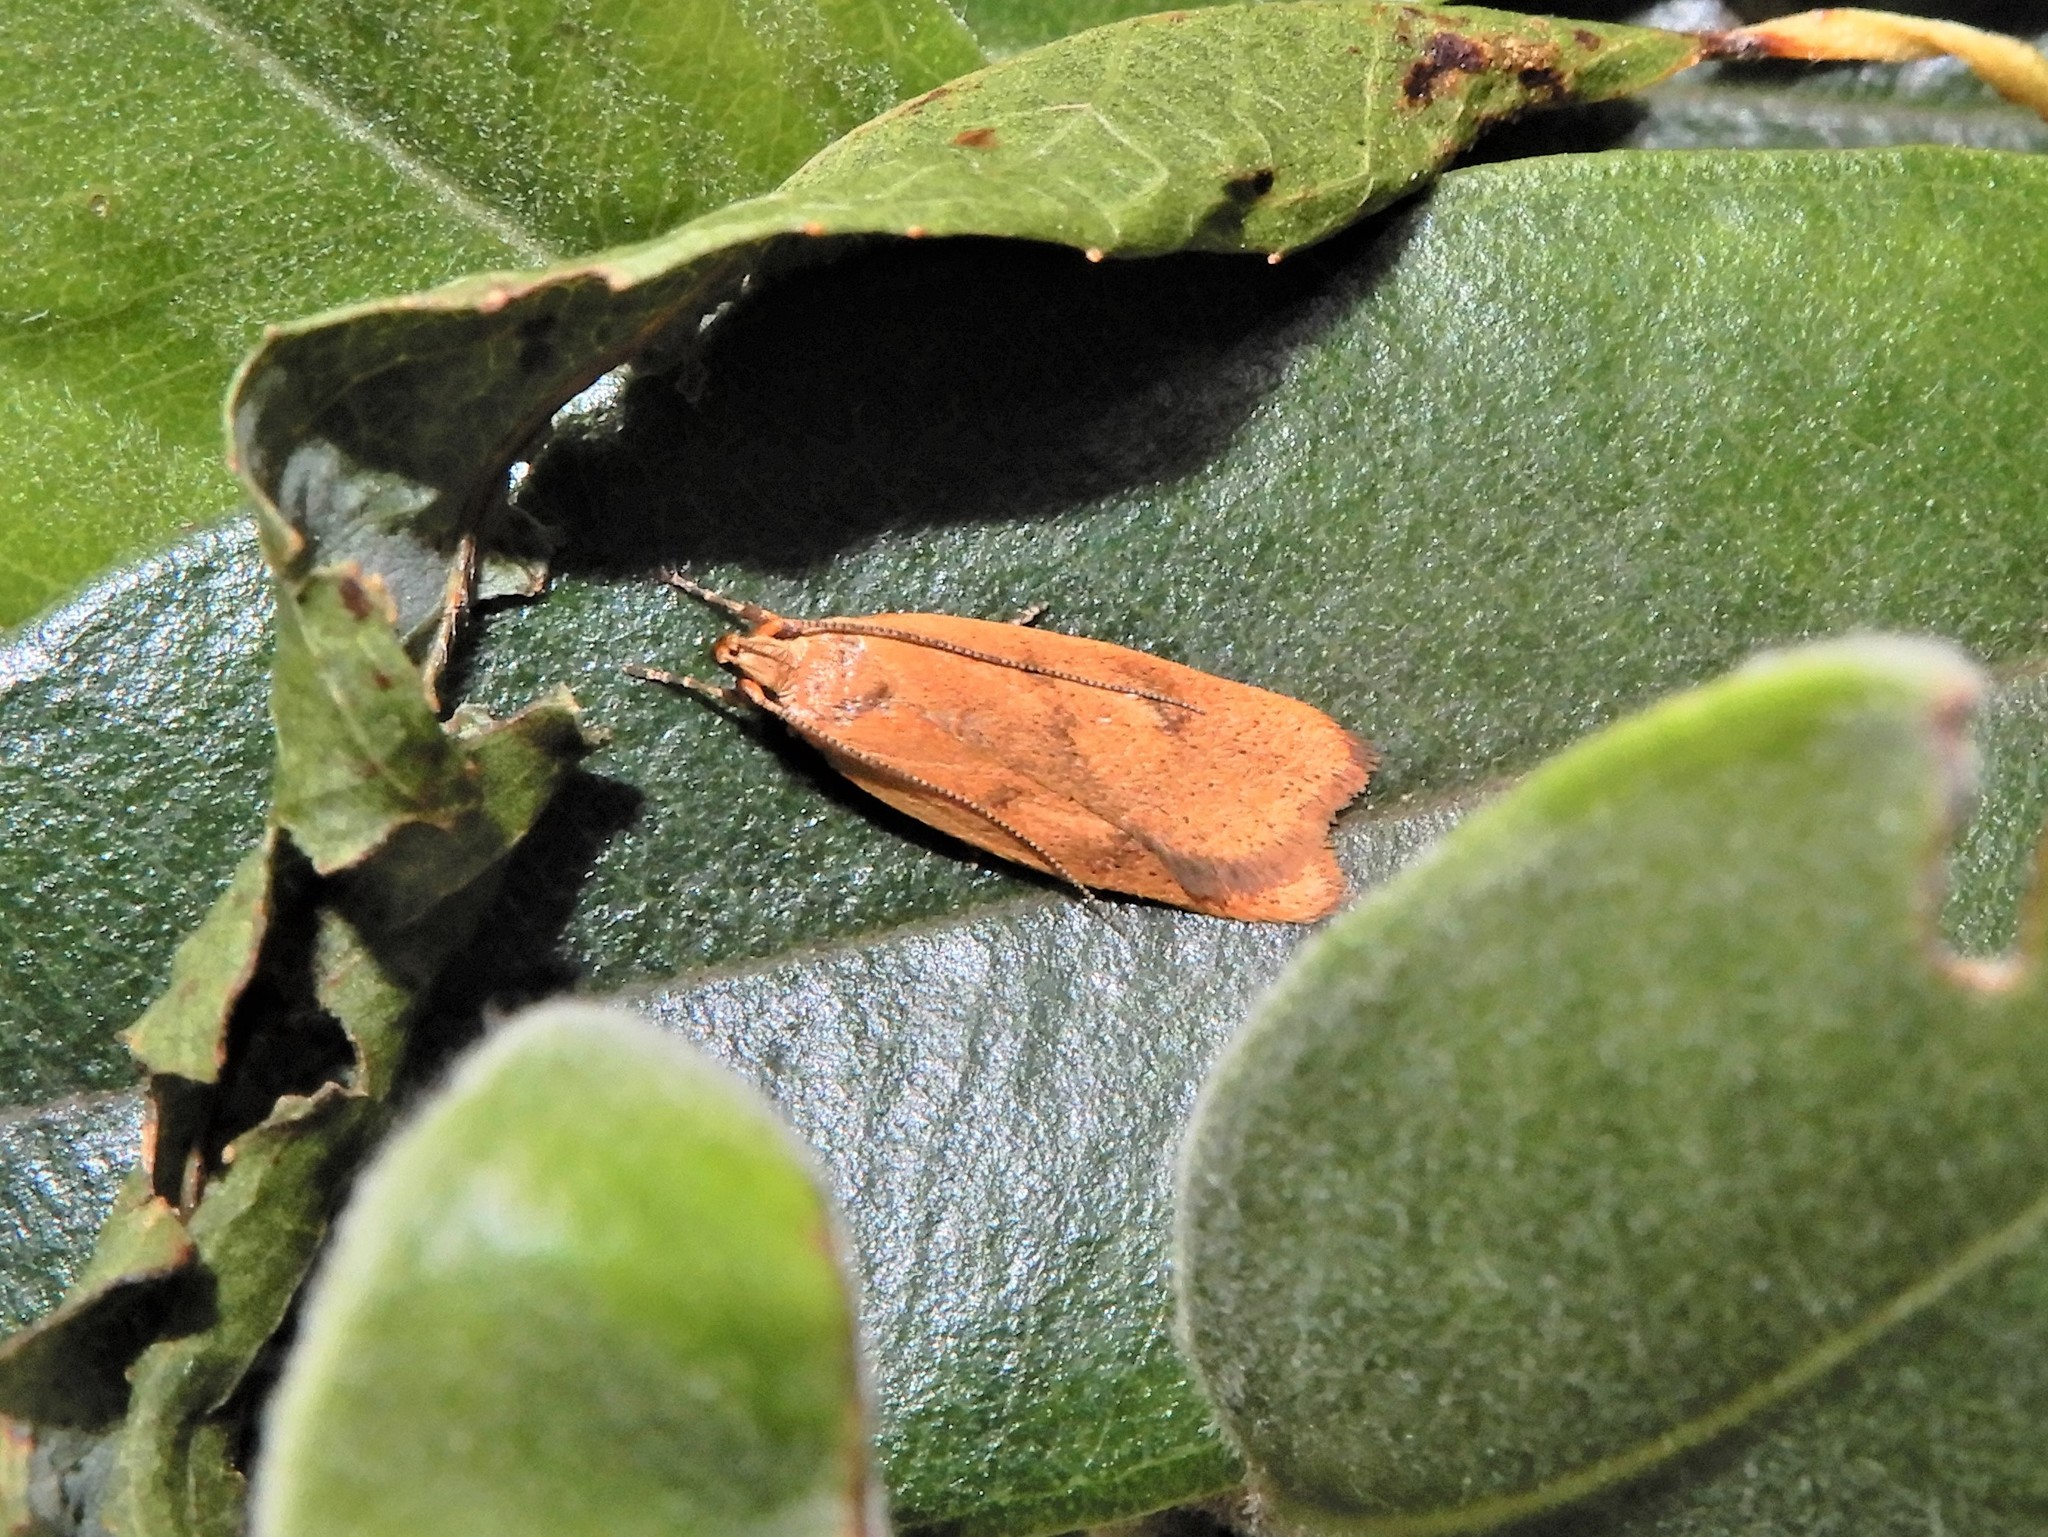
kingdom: Animalia
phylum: Arthropoda
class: Insecta
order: Lepidoptera
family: Oecophoridae
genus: Gymnobathra
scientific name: Gymnobathra sarcoxantha
